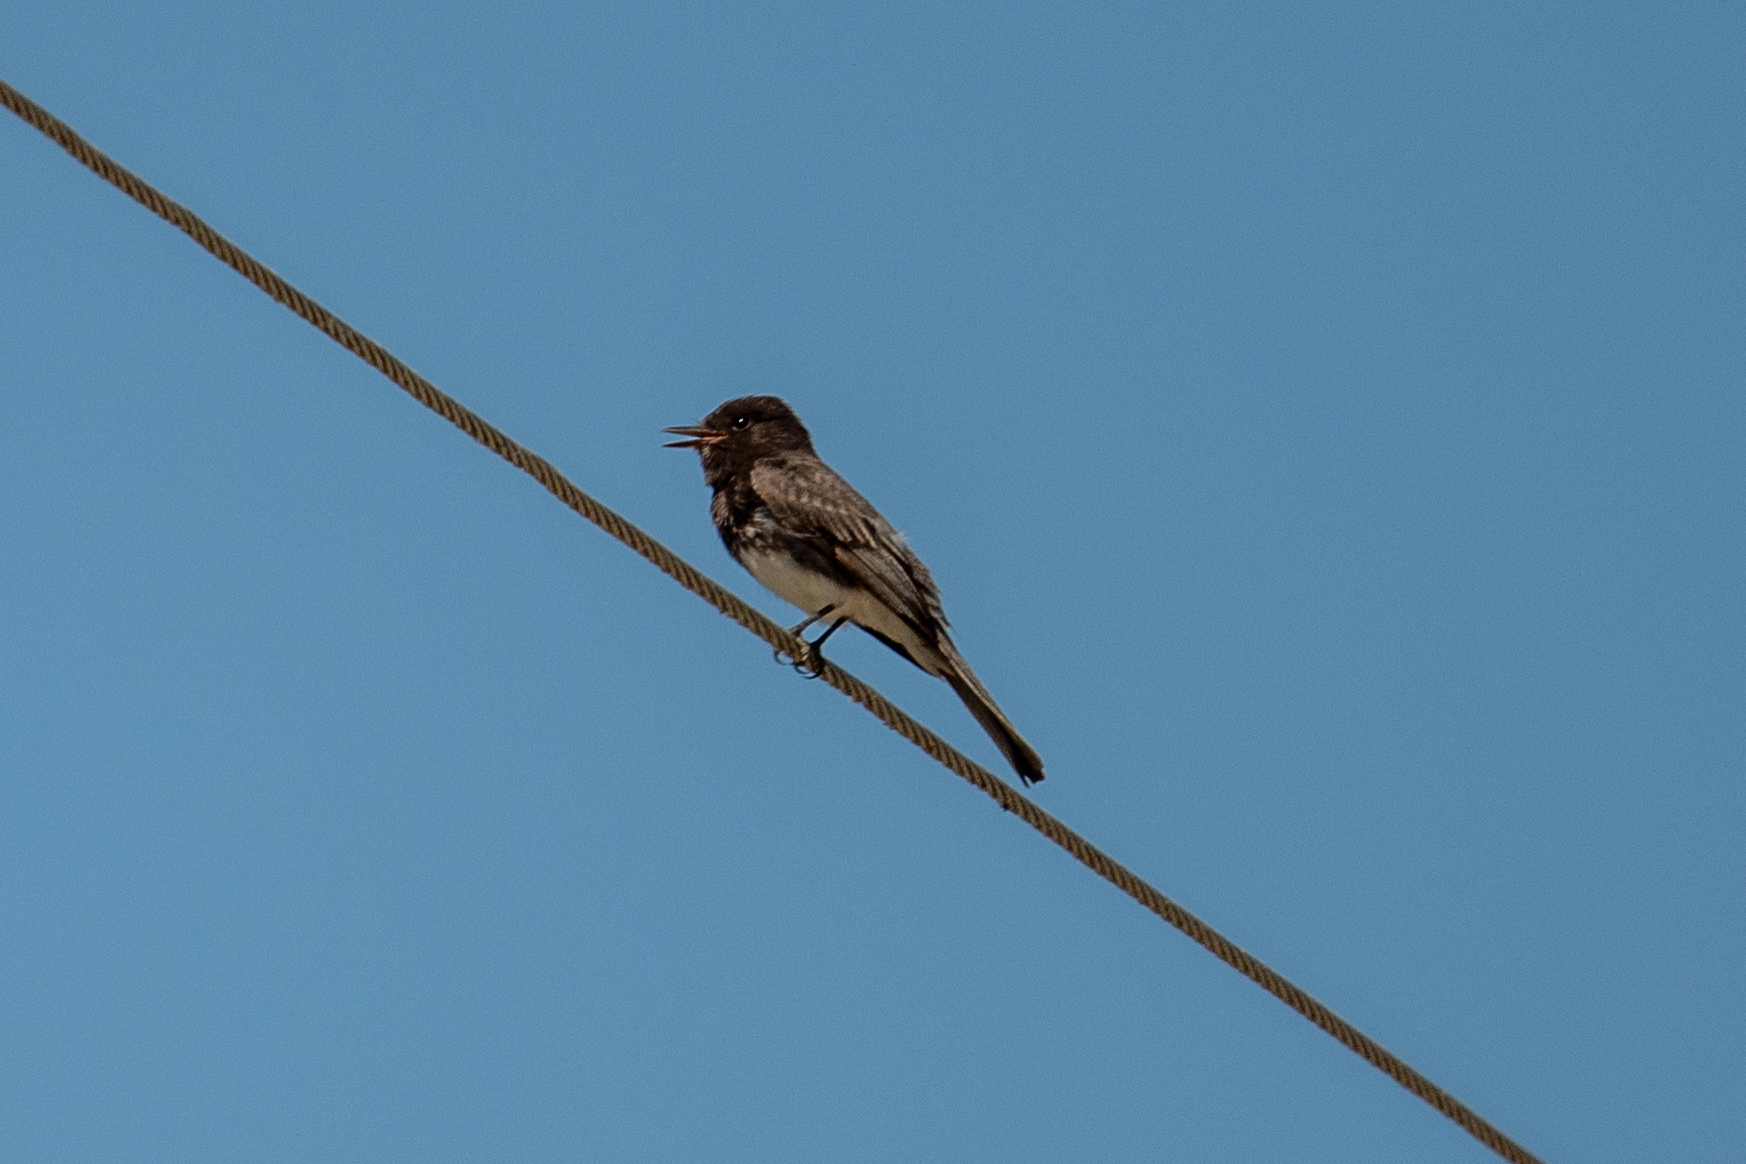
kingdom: Animalia
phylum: Chordata
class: Aves
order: Passeriformes
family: Tyrannidae
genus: Sayornis
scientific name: Sayornis nigricans
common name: Black phoebe
